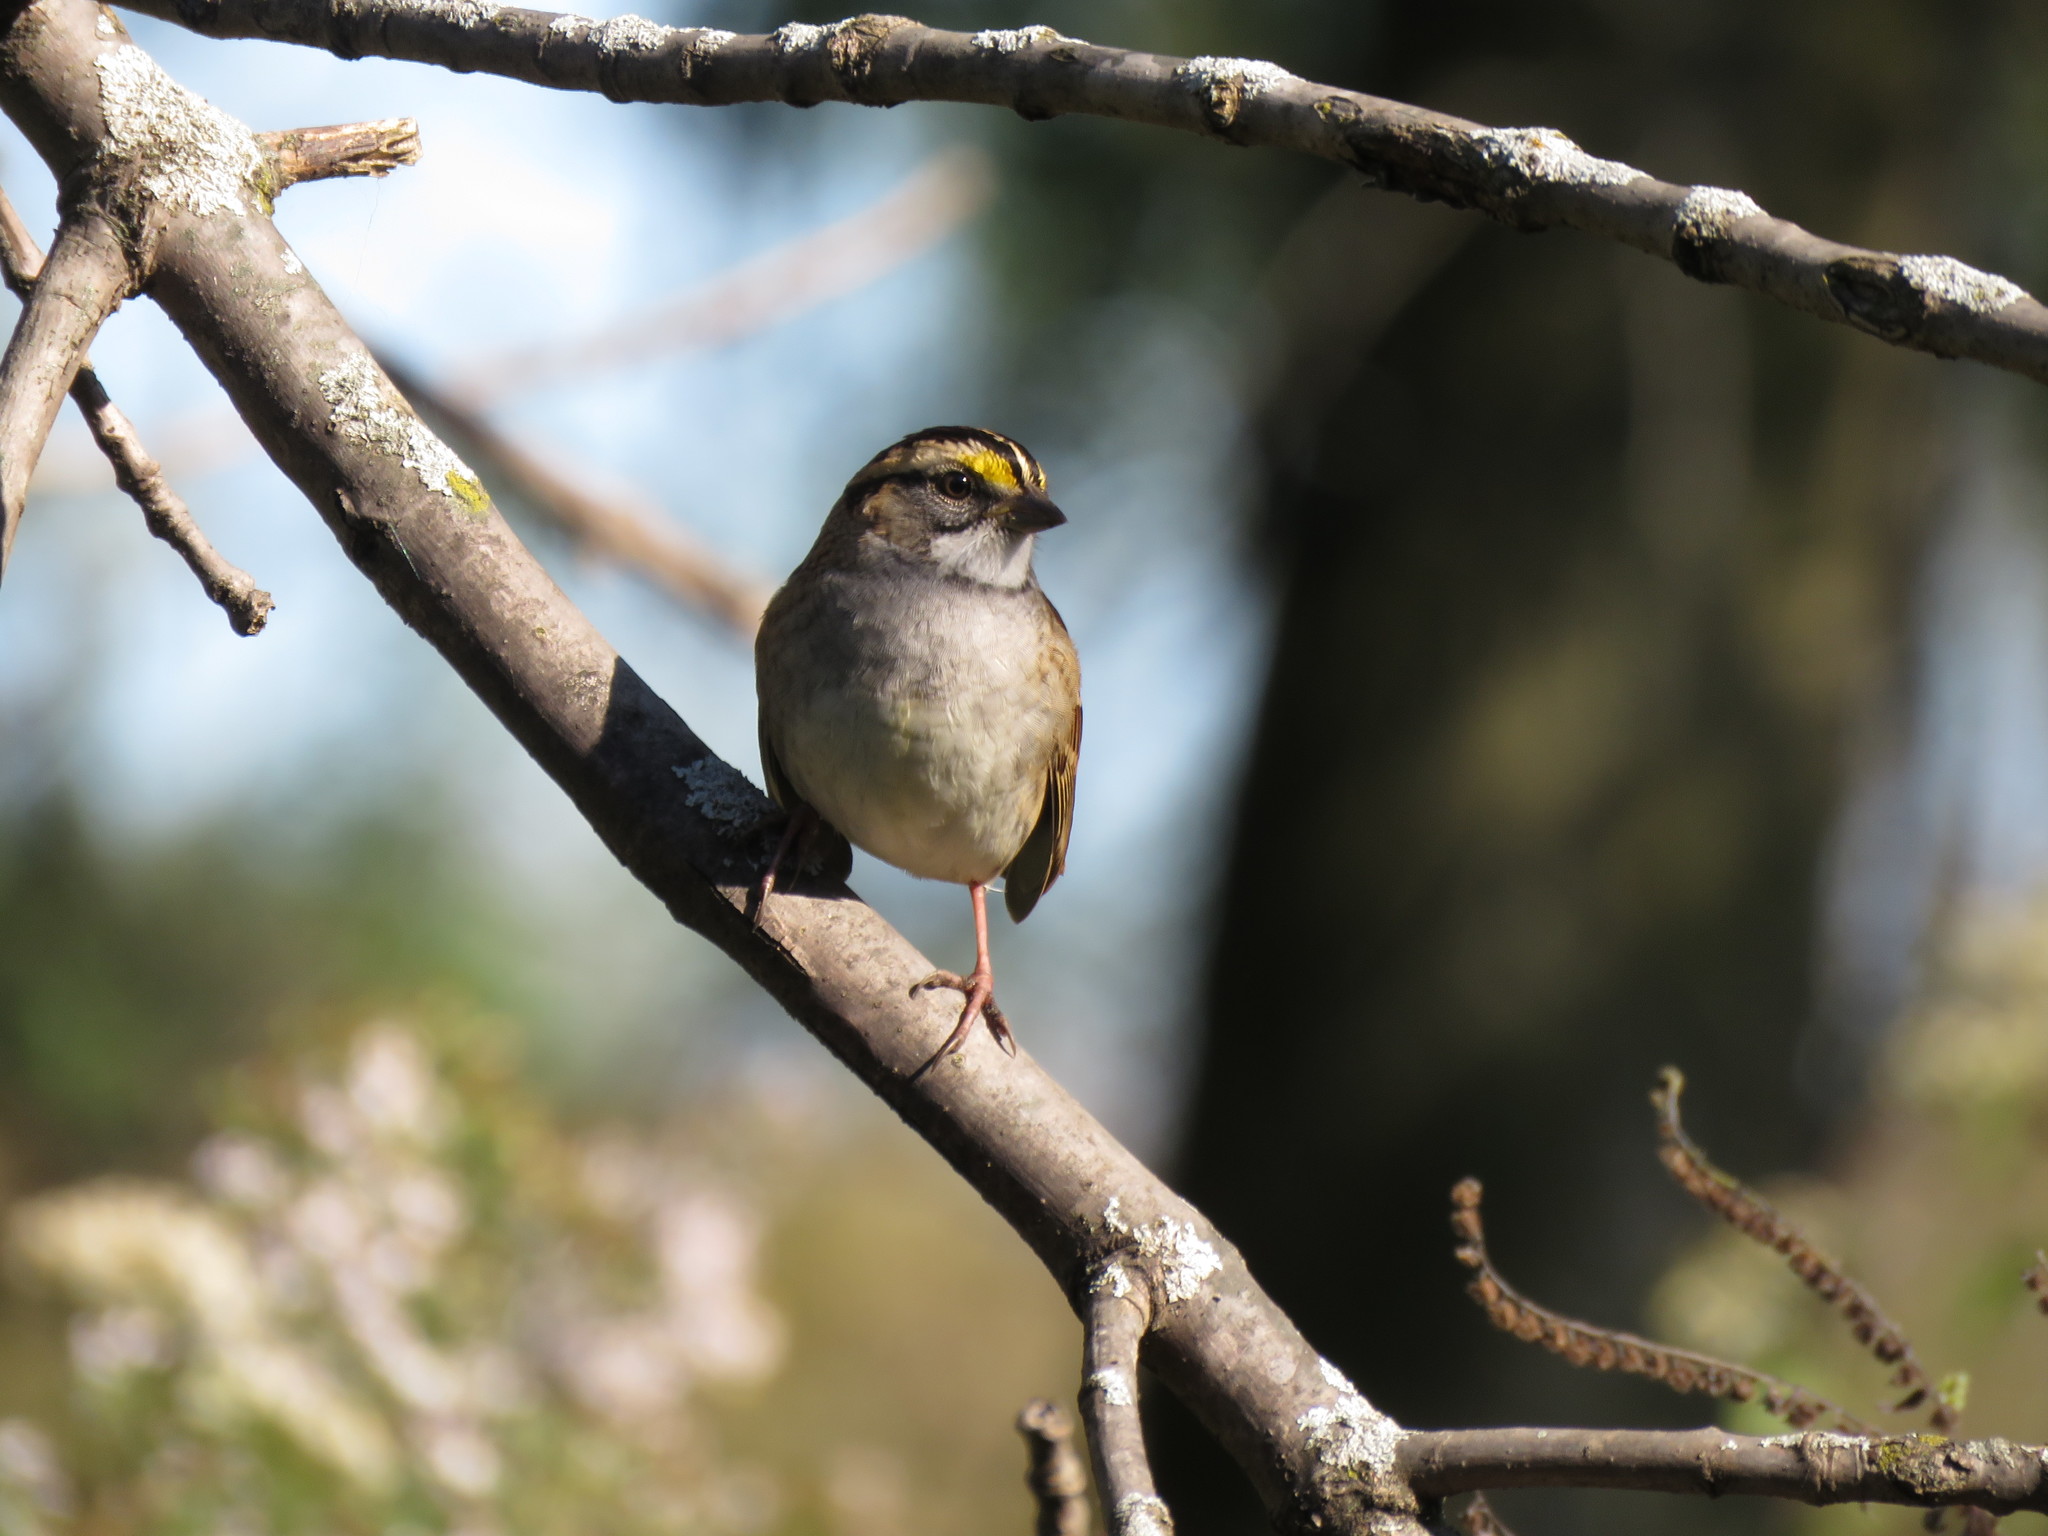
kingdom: Animalia
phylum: Chordata
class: Aves
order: Passeriformes
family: Passerellidae
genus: Zonotrichia
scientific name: Zonotrichia albicollis
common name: White-throated sparrow
